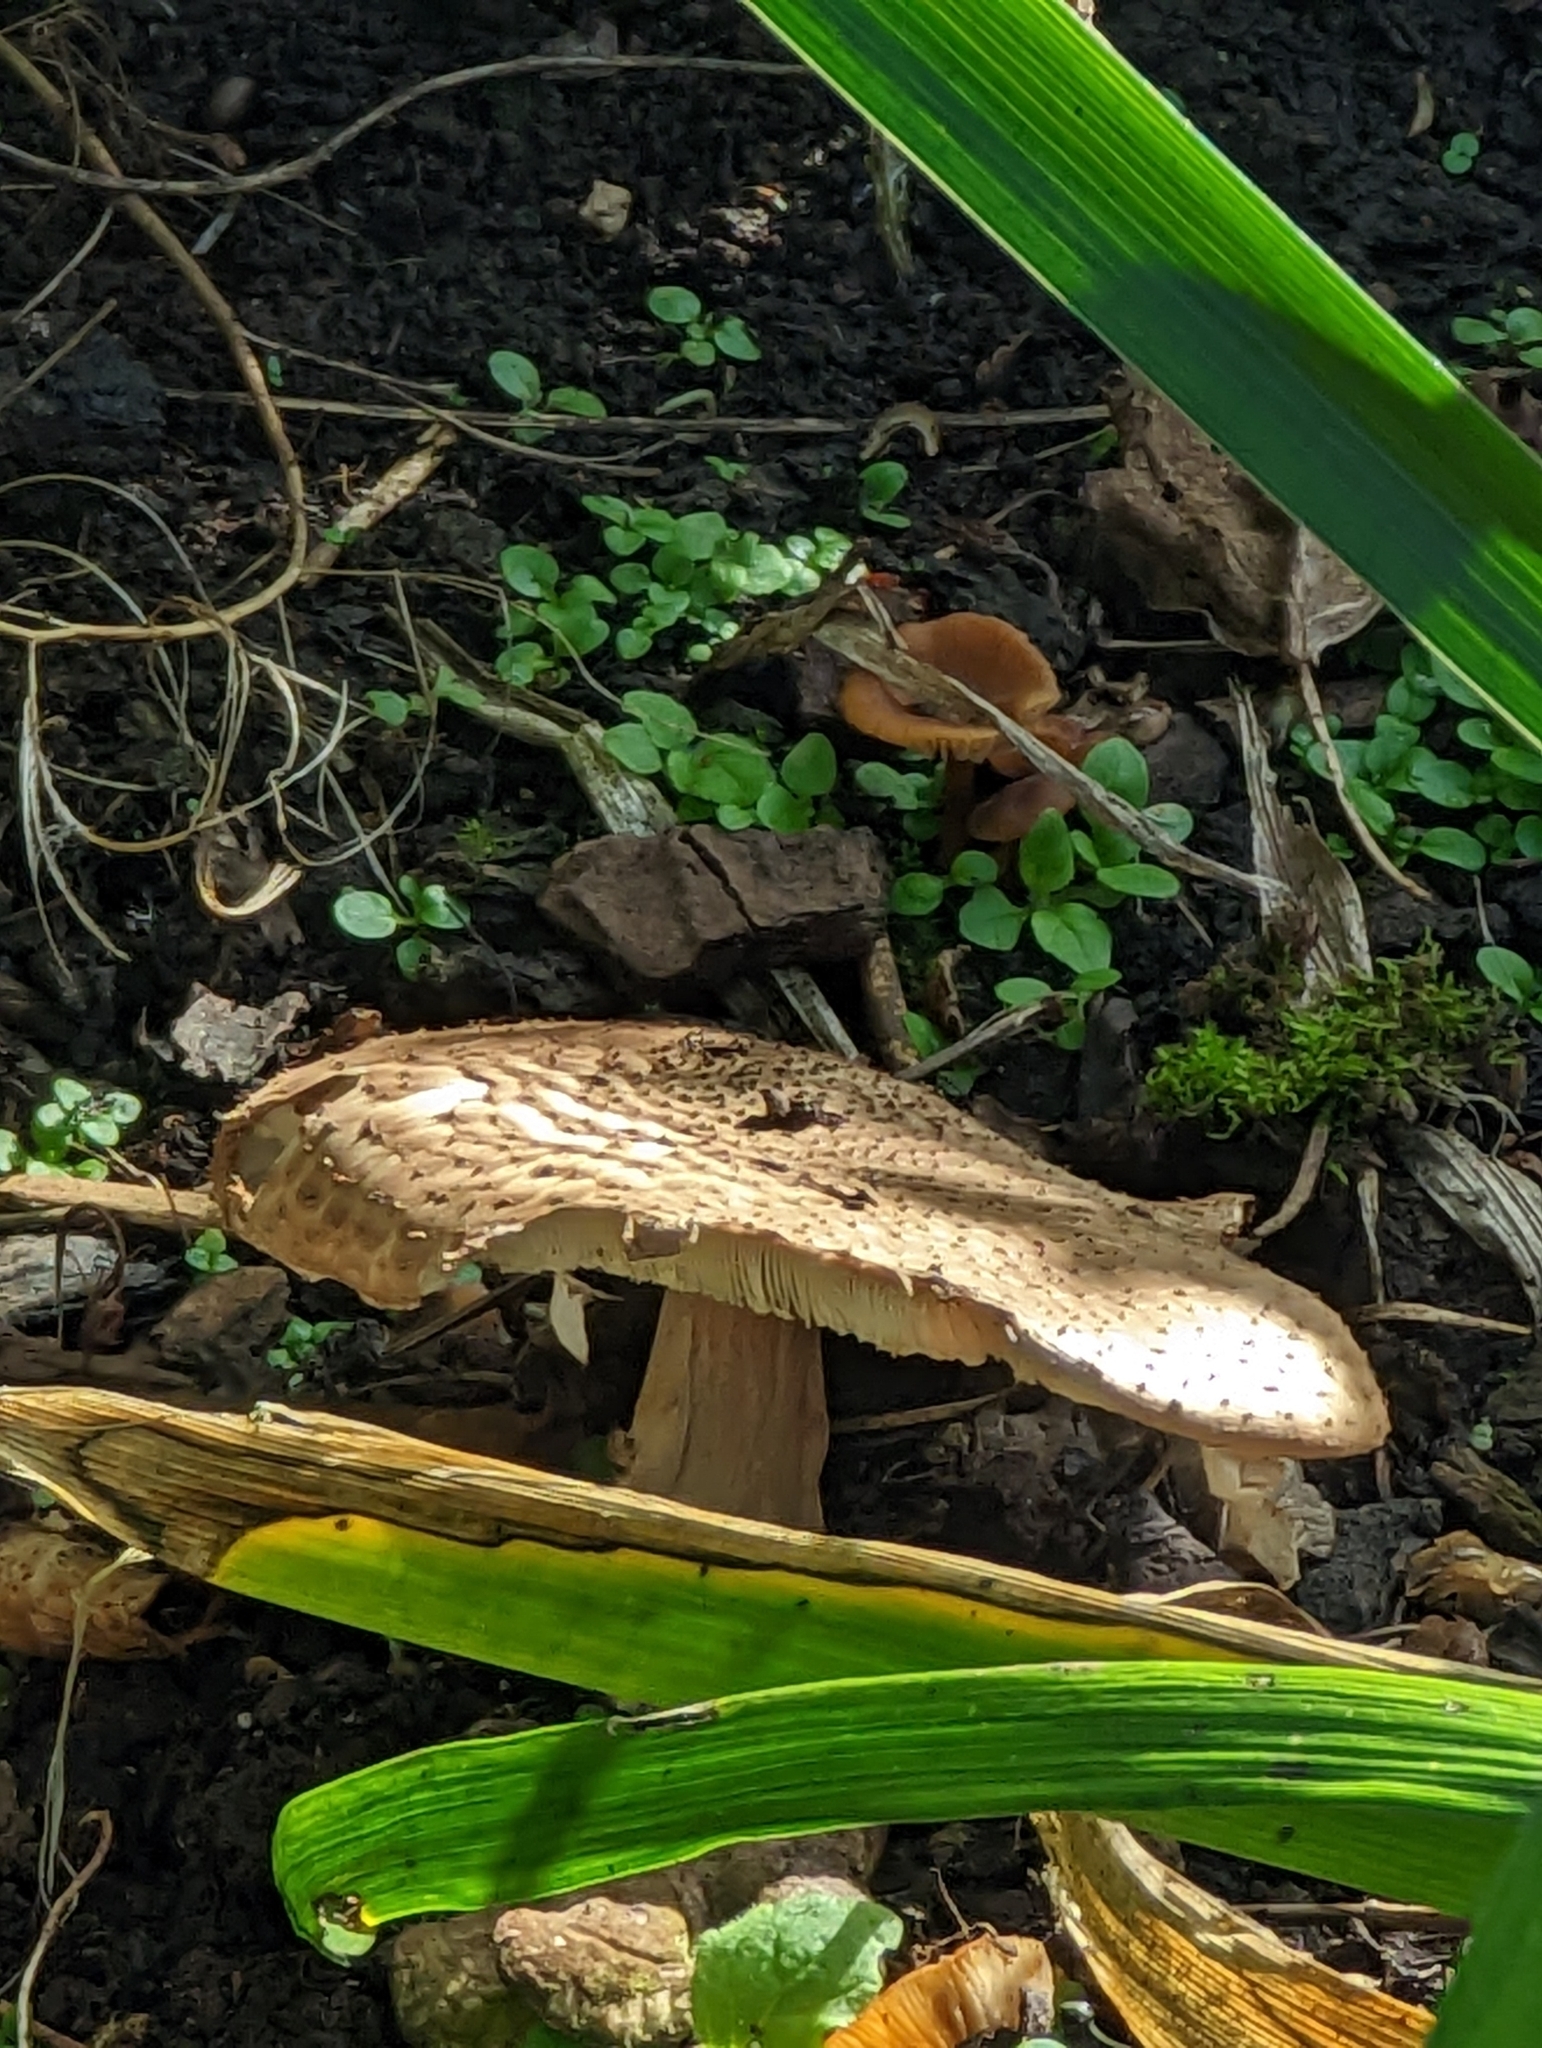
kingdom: Fungi
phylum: Basidiomycota
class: Agaricomycetes
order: Agaricales
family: Agaricaceae
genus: Echinoderma
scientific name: Echinoderma asperum
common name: Freckled dapperling
